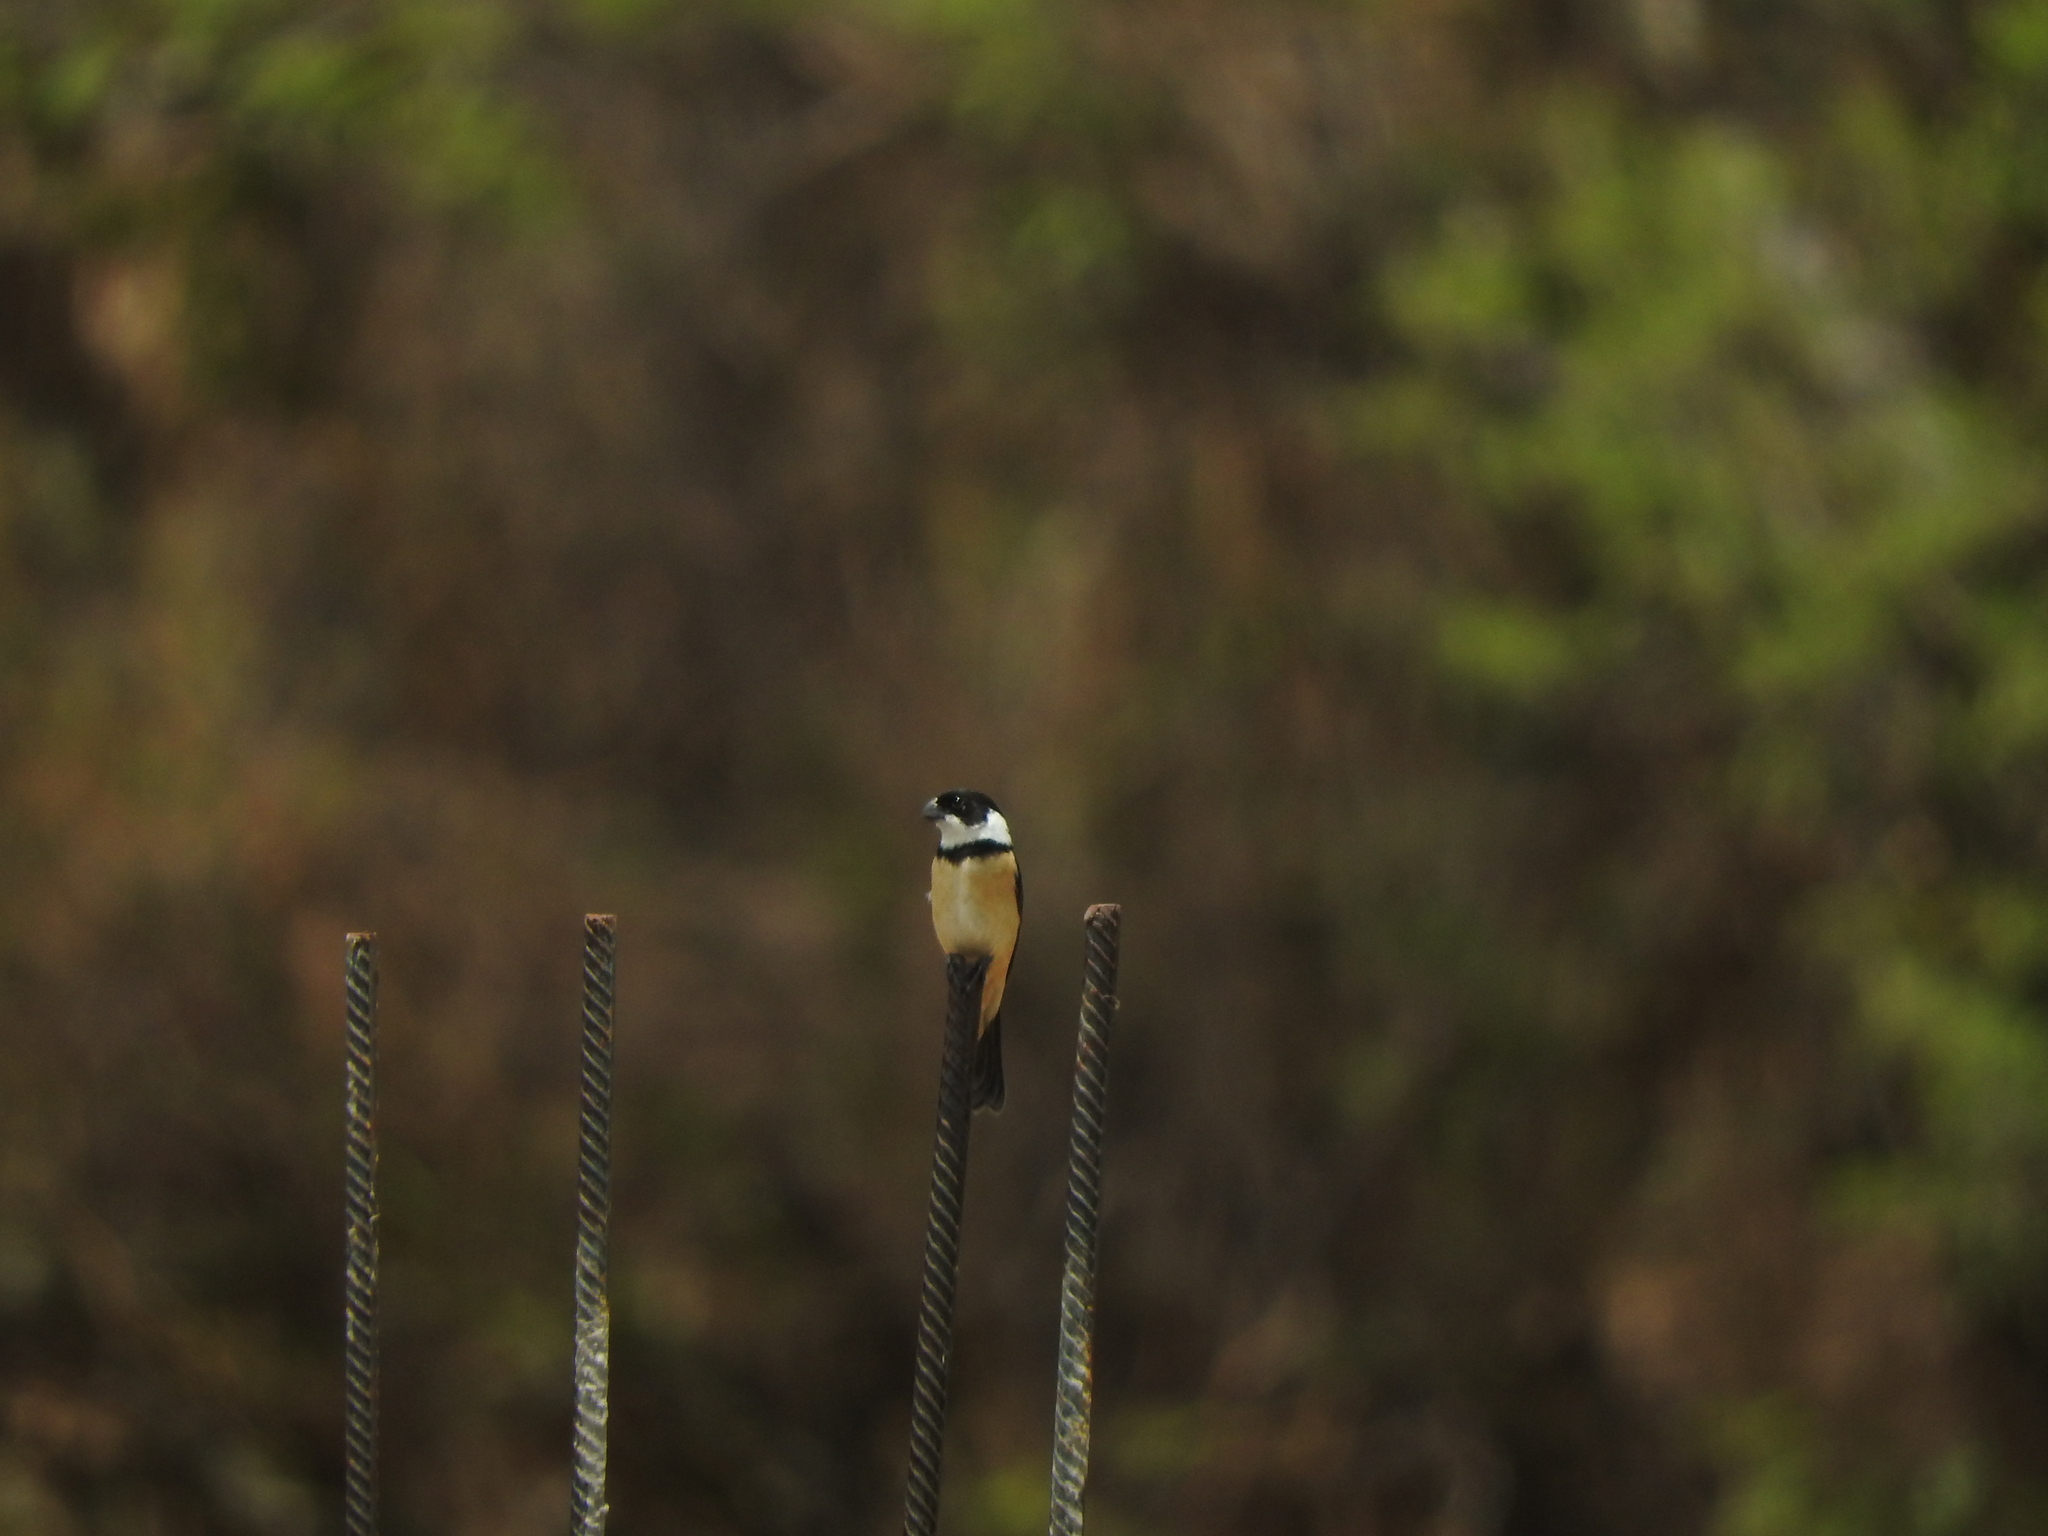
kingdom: Animalia
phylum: Chordata
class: Aves
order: Passeriformes
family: Thraupidae
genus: Sporophila
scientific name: Sporophila torqueola
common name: White-collared seedeater
